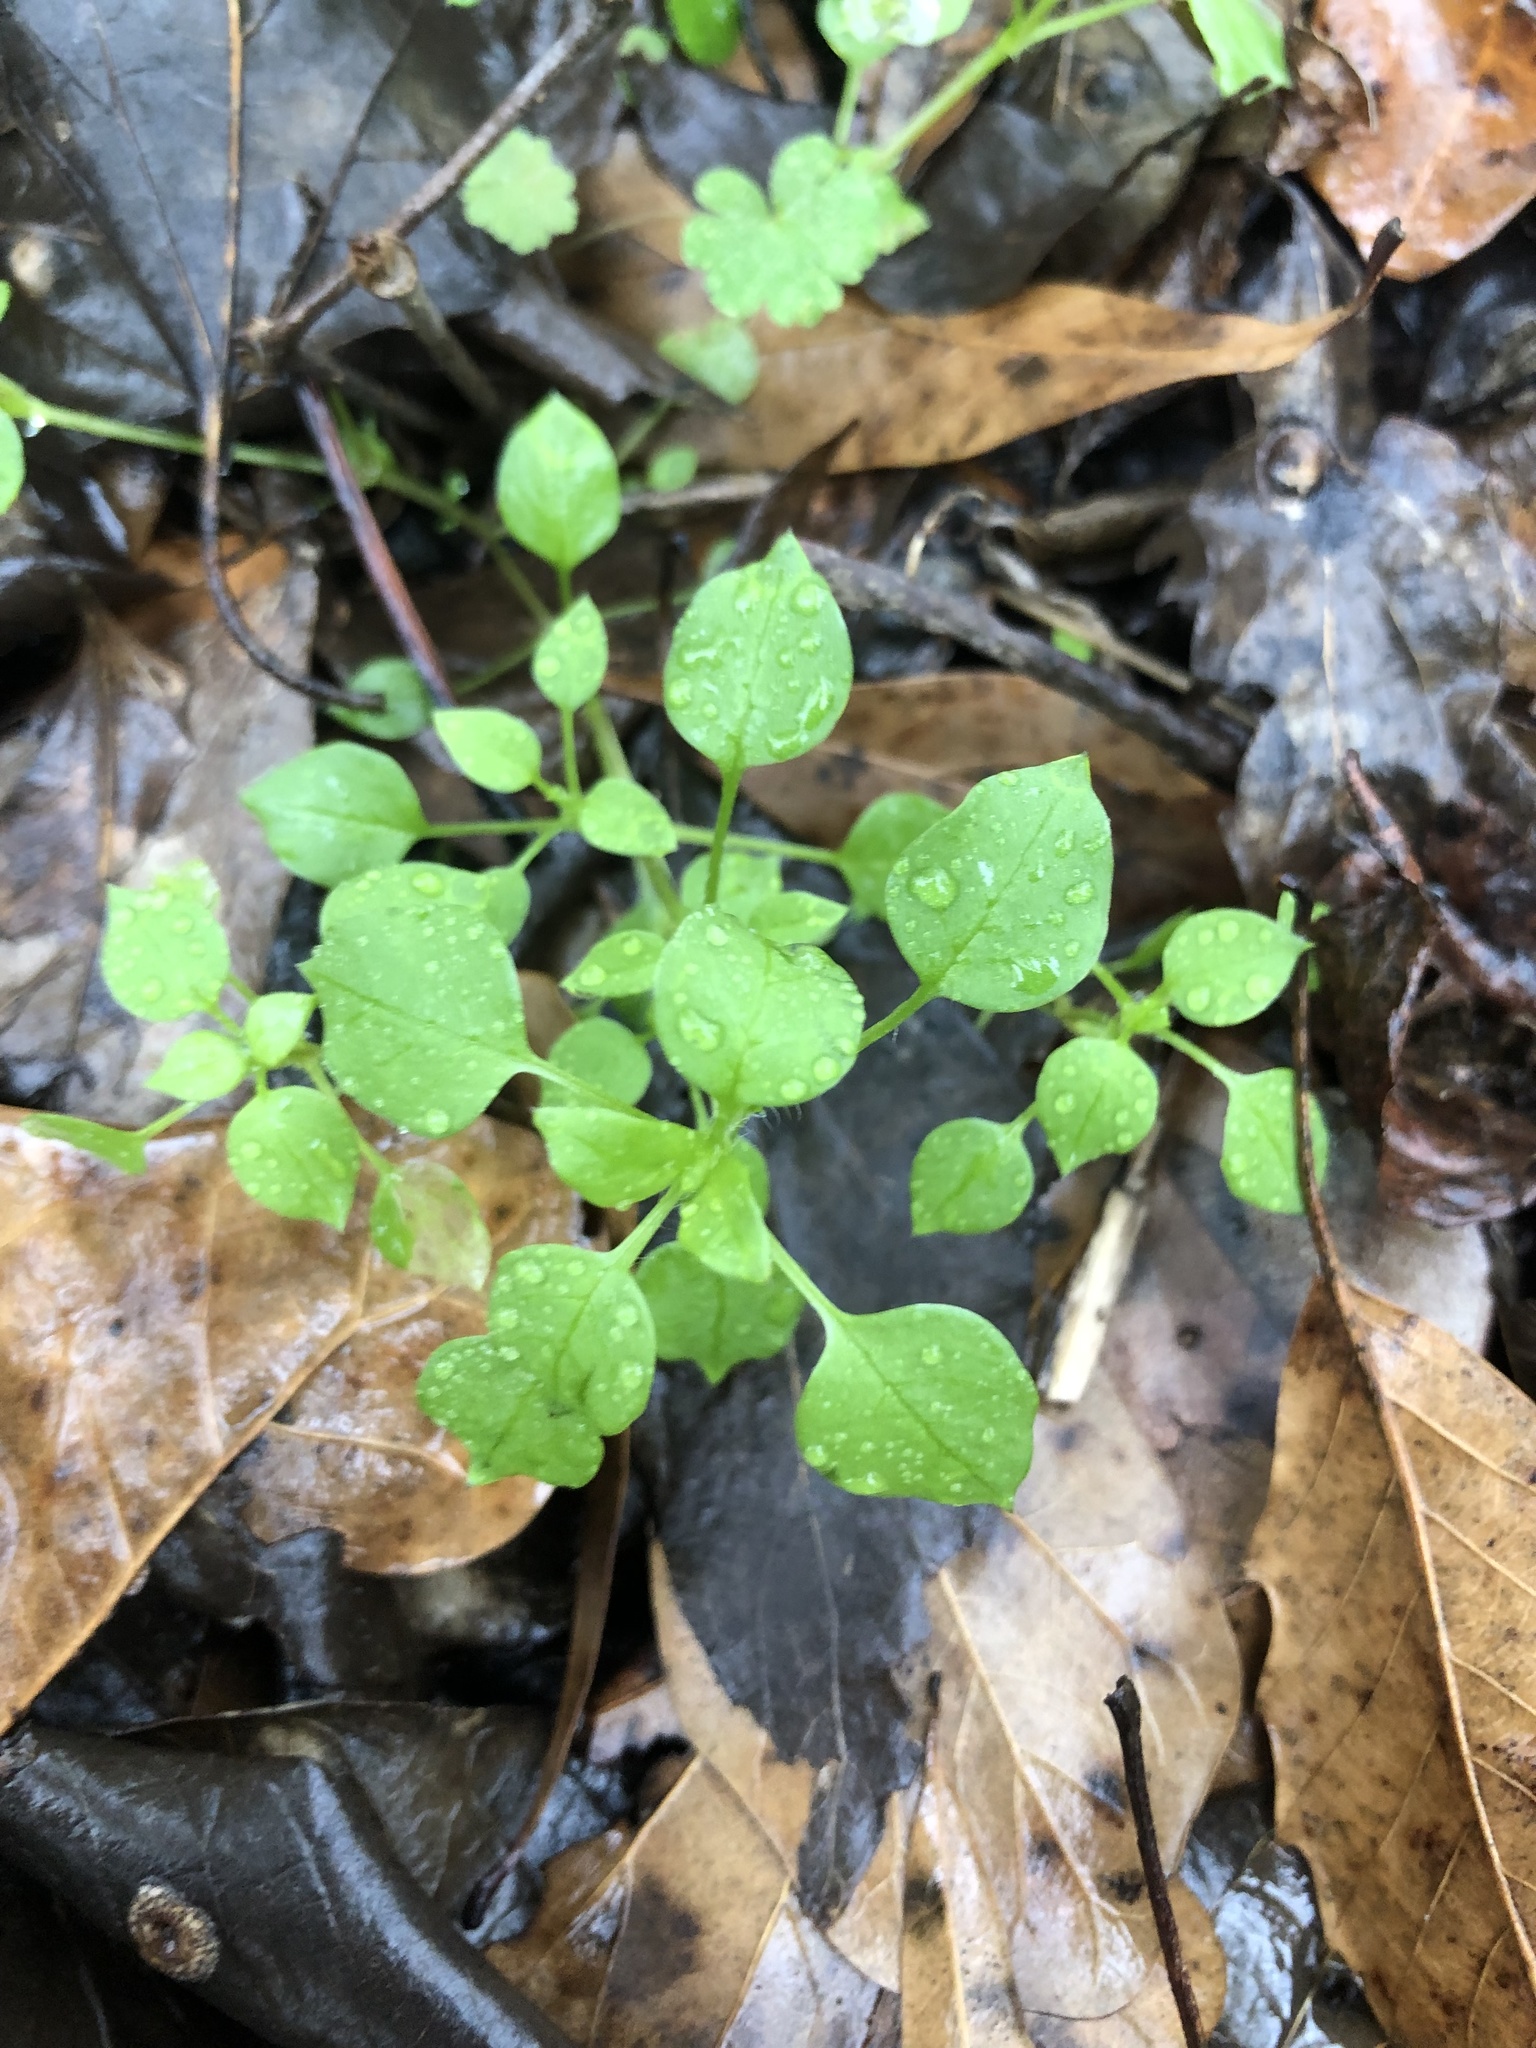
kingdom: Plantae
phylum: Tracheophyta
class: Magnoliopsida
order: Caryophyllales
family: Caryophyllaceae
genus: Stellaria
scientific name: Stellaria media
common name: Common chickweed
